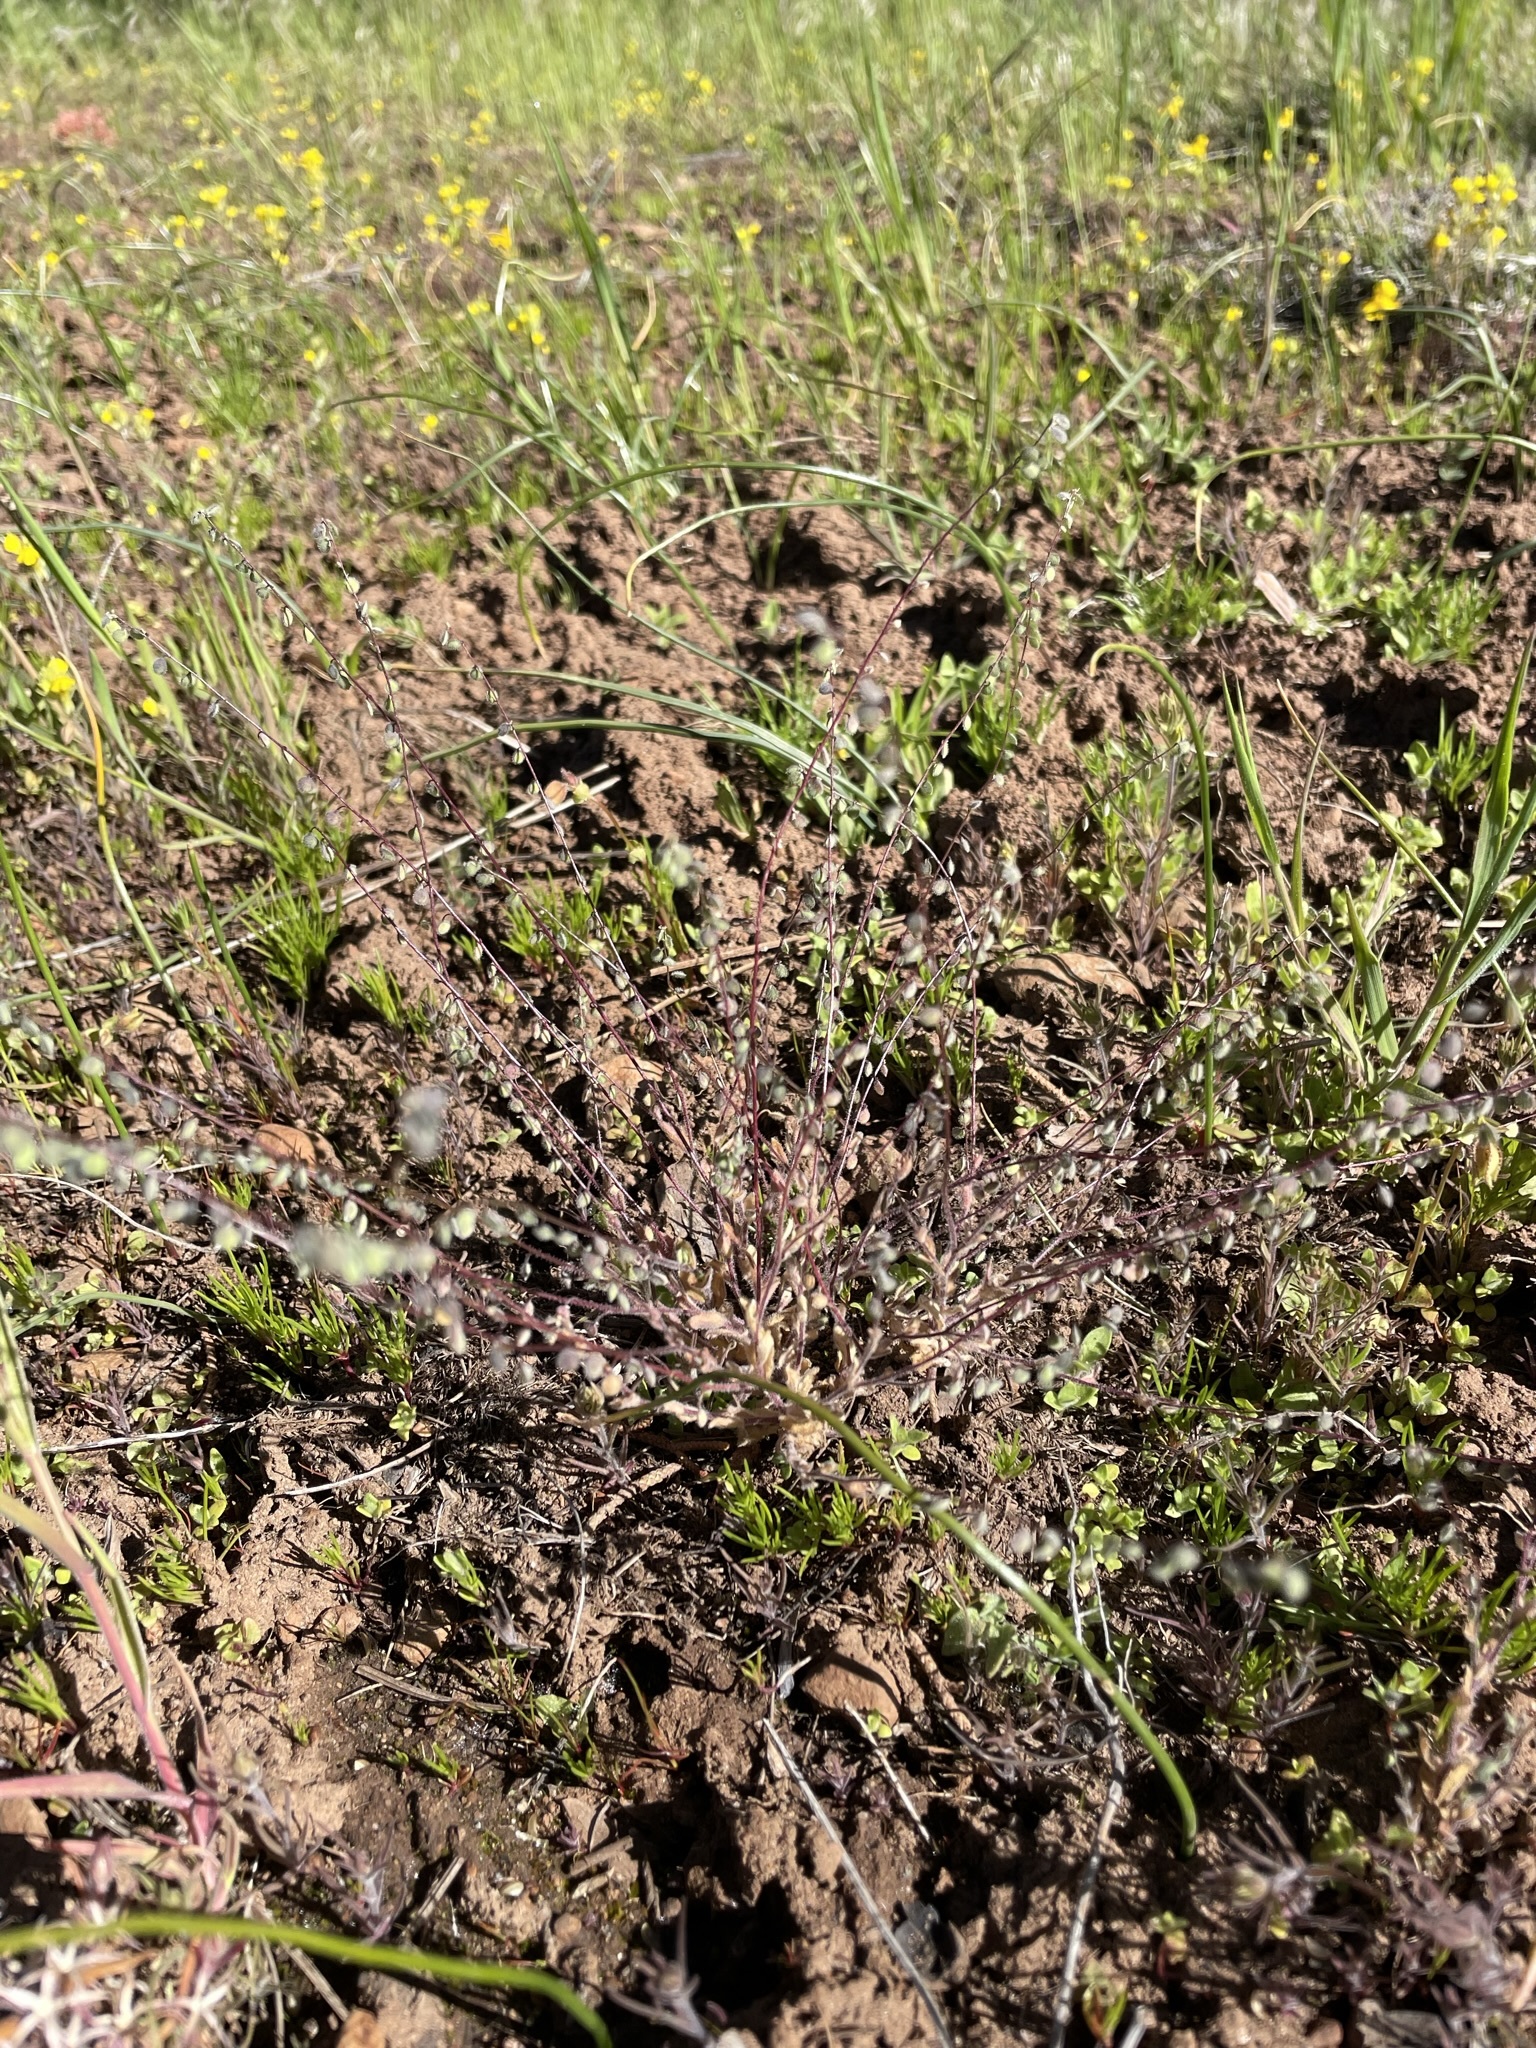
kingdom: Plantae
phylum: Tracheophyta
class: Magnoliopsida
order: Brassicales
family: Brassicaceae
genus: Athysanus
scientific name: Athysanus pusillus
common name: Common sandweed
